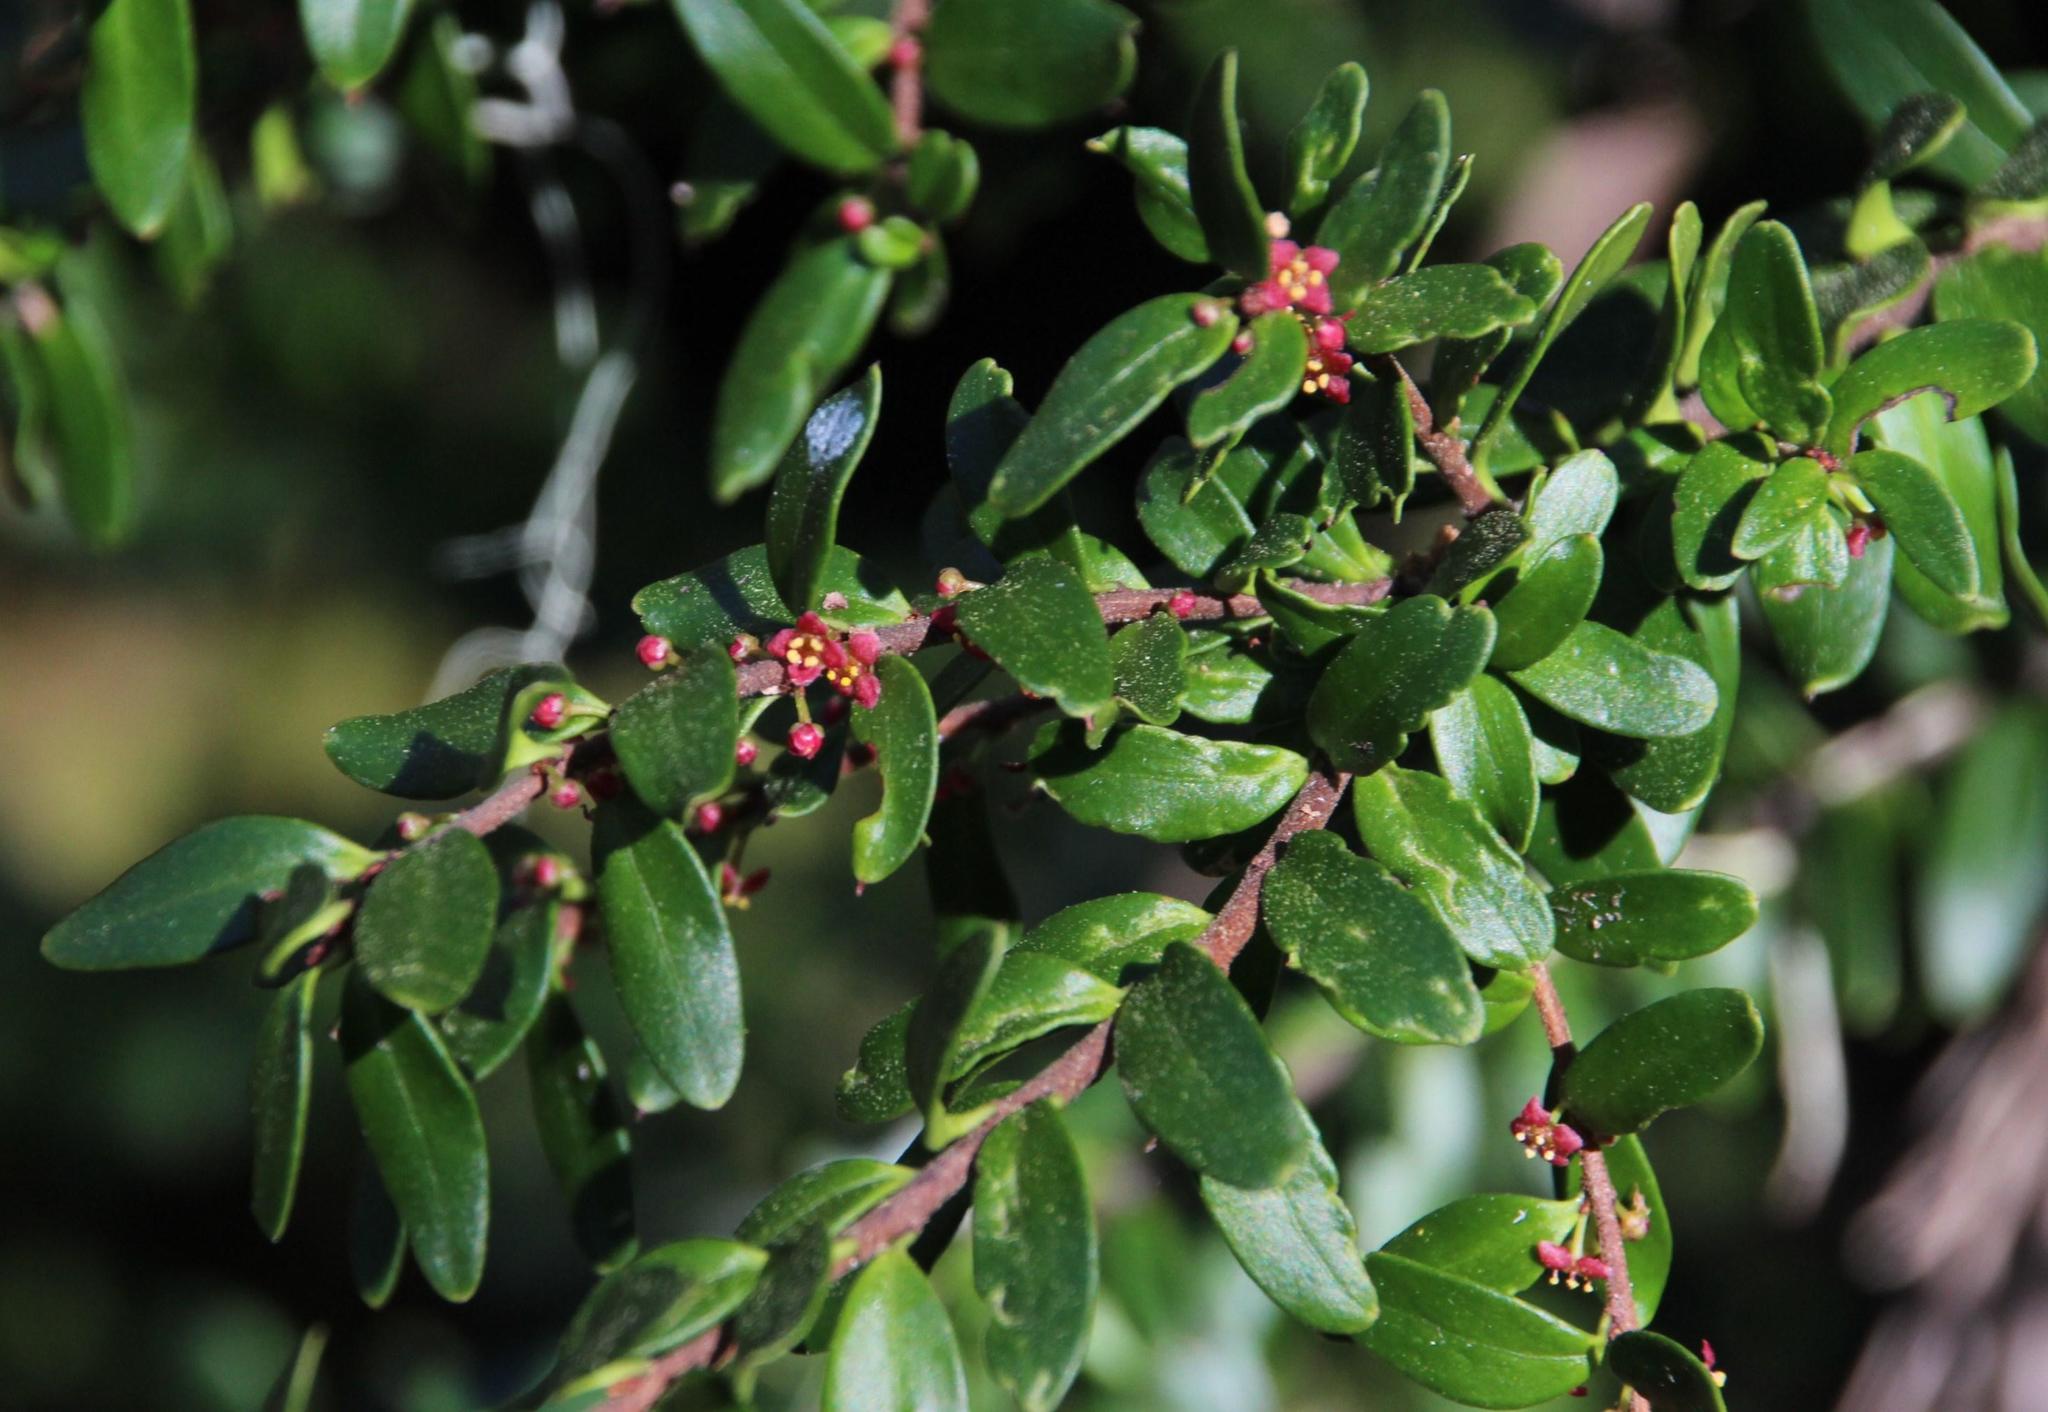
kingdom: Plantae
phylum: Tracheophyta
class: Magnoliopsida
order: Celastrales
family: Celastraceae
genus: Maytenus
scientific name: Maytenus disticha
